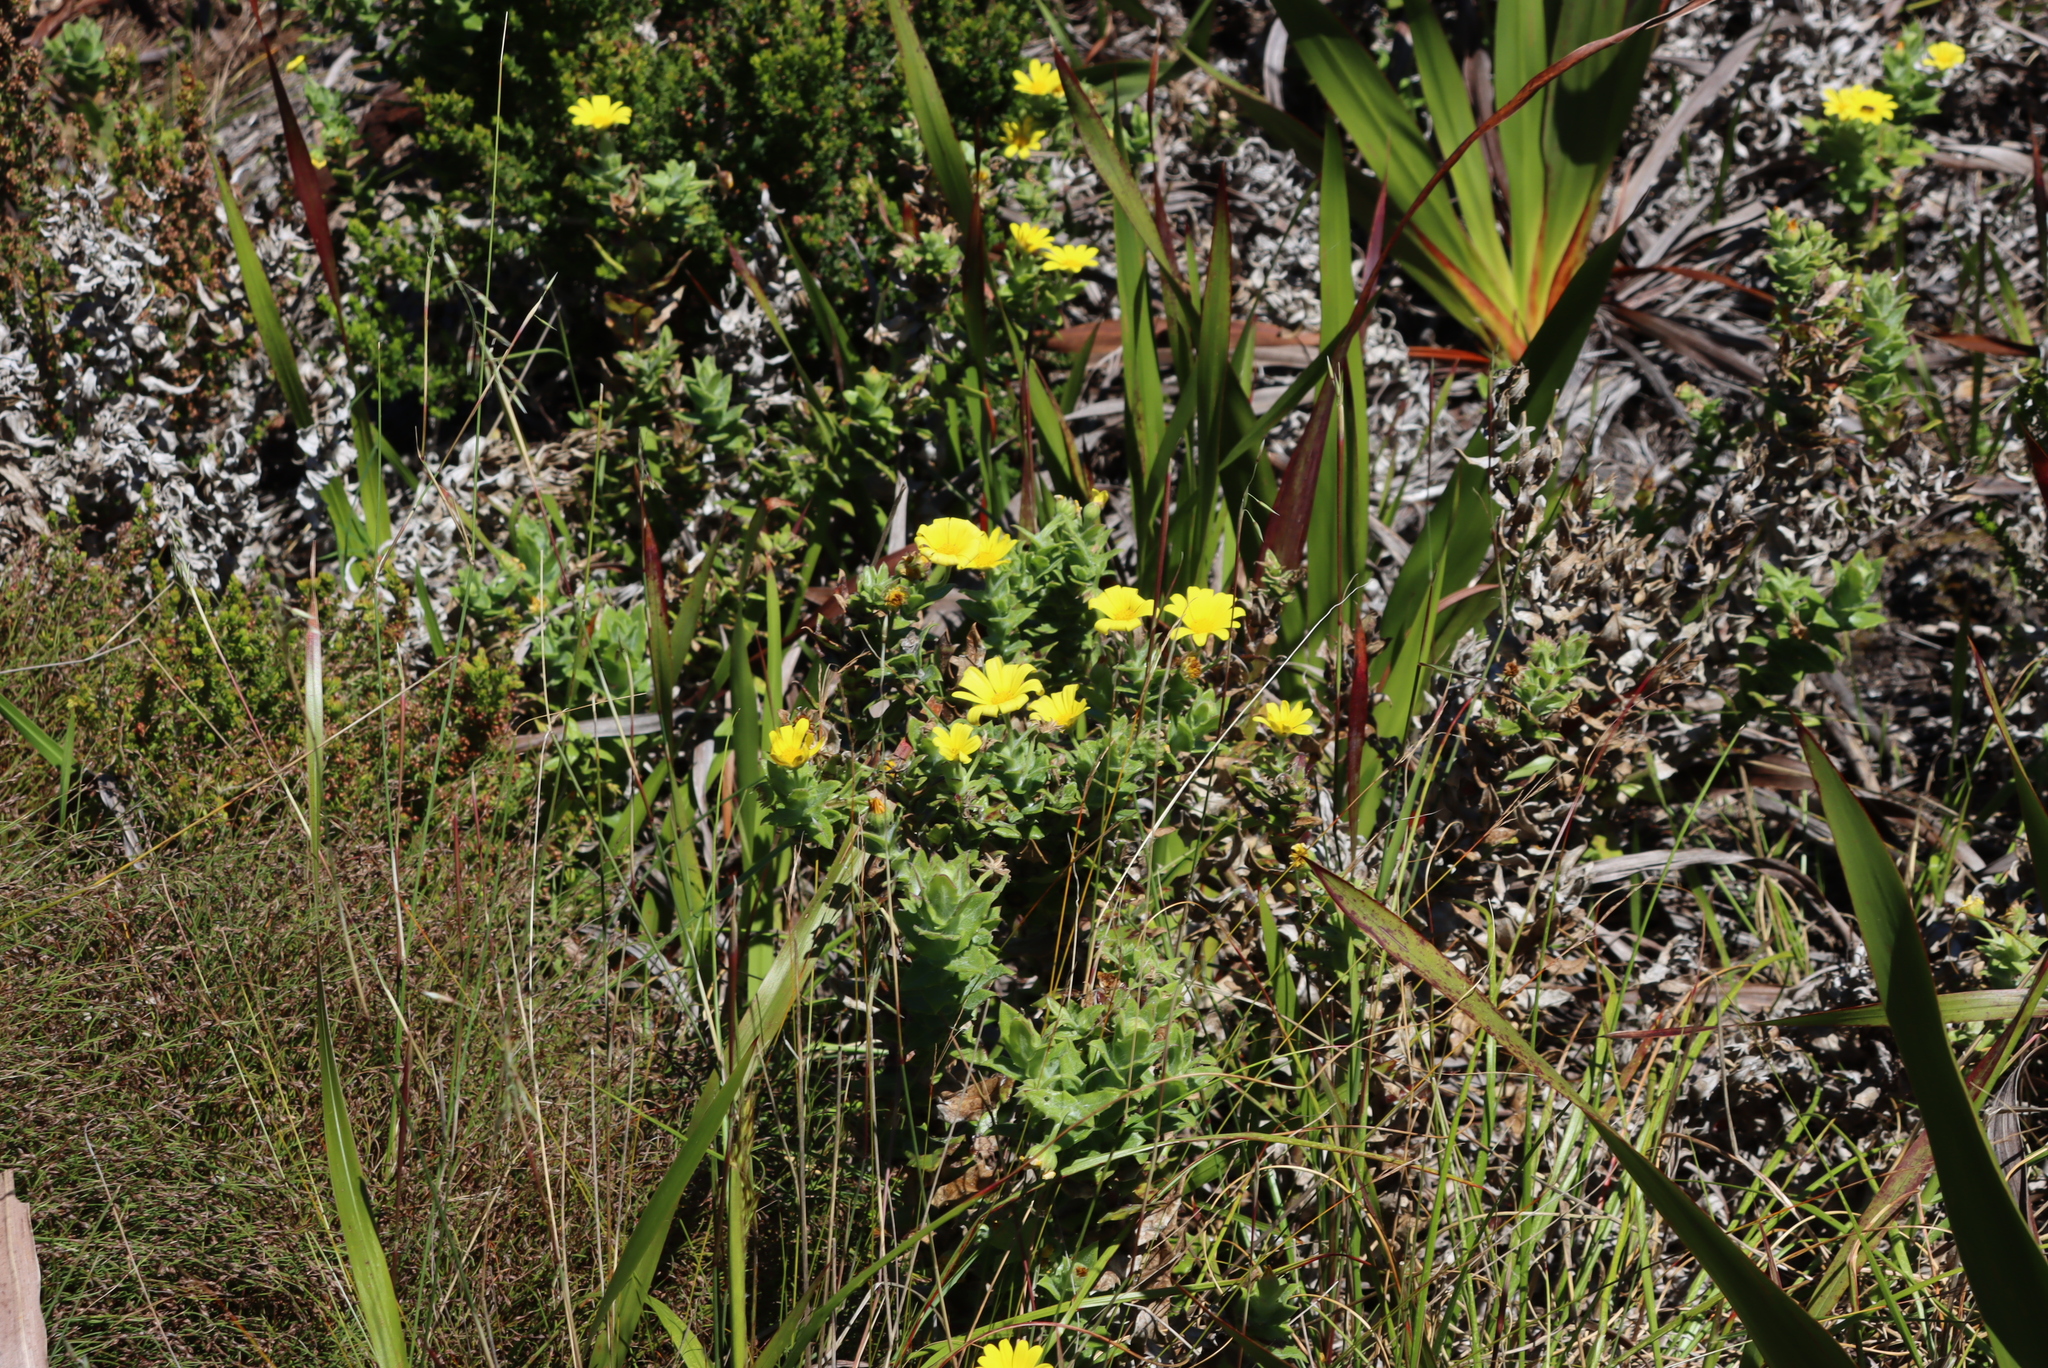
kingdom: Plantae
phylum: Tracheophyta
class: Magnoliopsida
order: Asterales
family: Asteraceae
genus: Osteospermum
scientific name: Osteospermum ilicifolium
